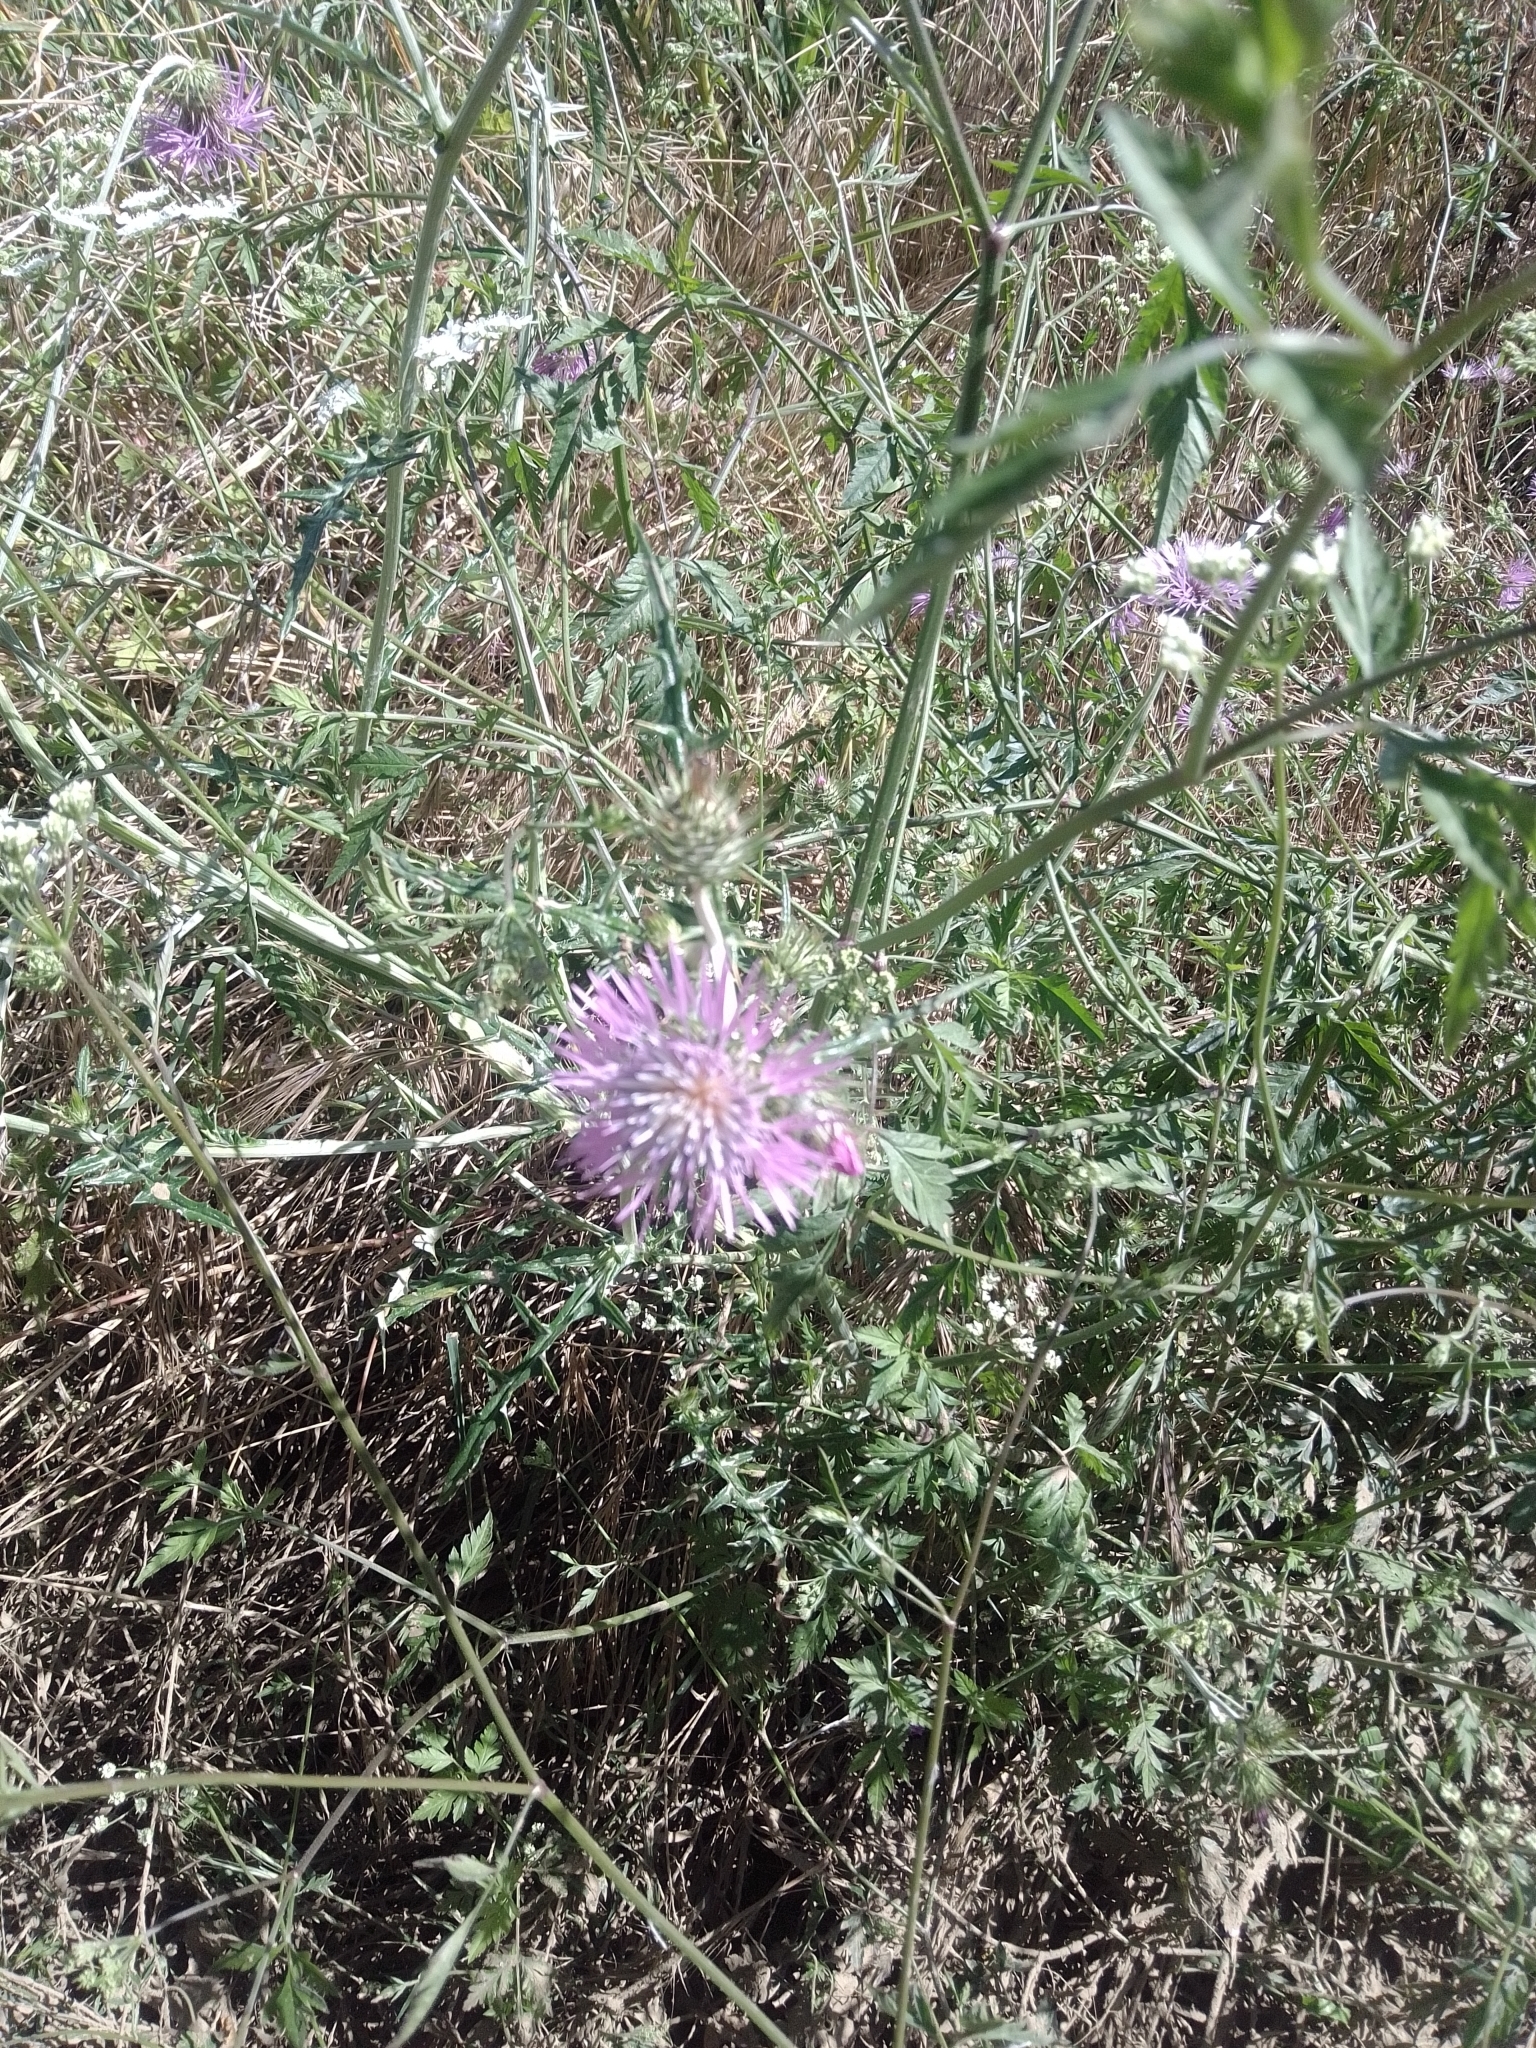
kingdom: Plantae
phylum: Tracheophyta
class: Magnoliopsida
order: Asterales
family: Asteraceae
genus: Galactites
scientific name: Galactites tomentosa
